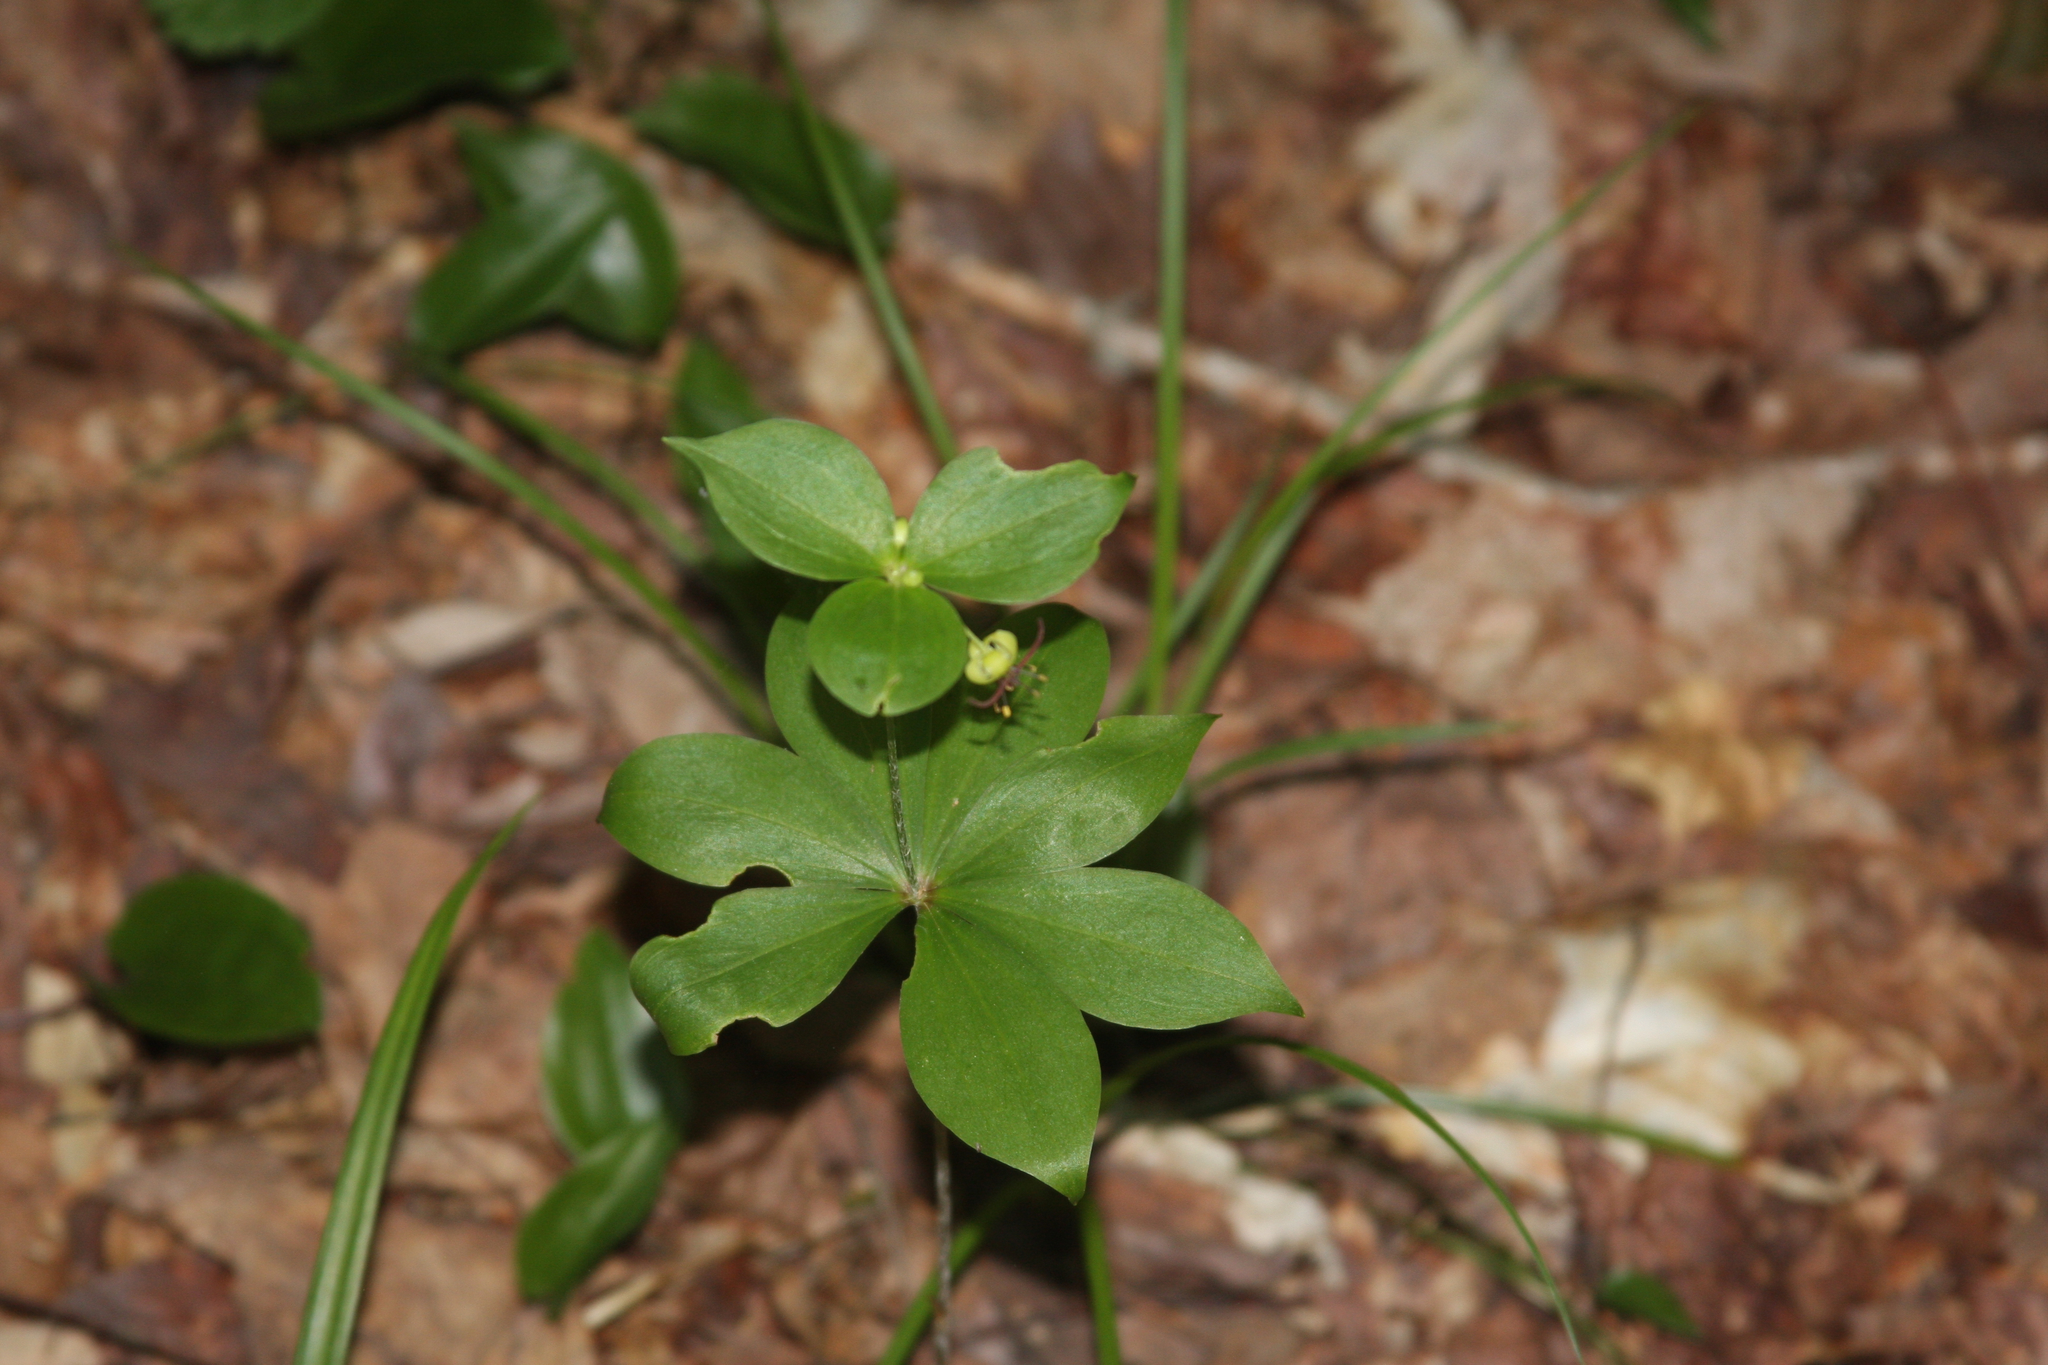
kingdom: Plantae
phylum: Tracheophyta
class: Liliopsida
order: Liliales
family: Liliaceae
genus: Medeola
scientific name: Medeola virginiana
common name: Indian cucumber-root
